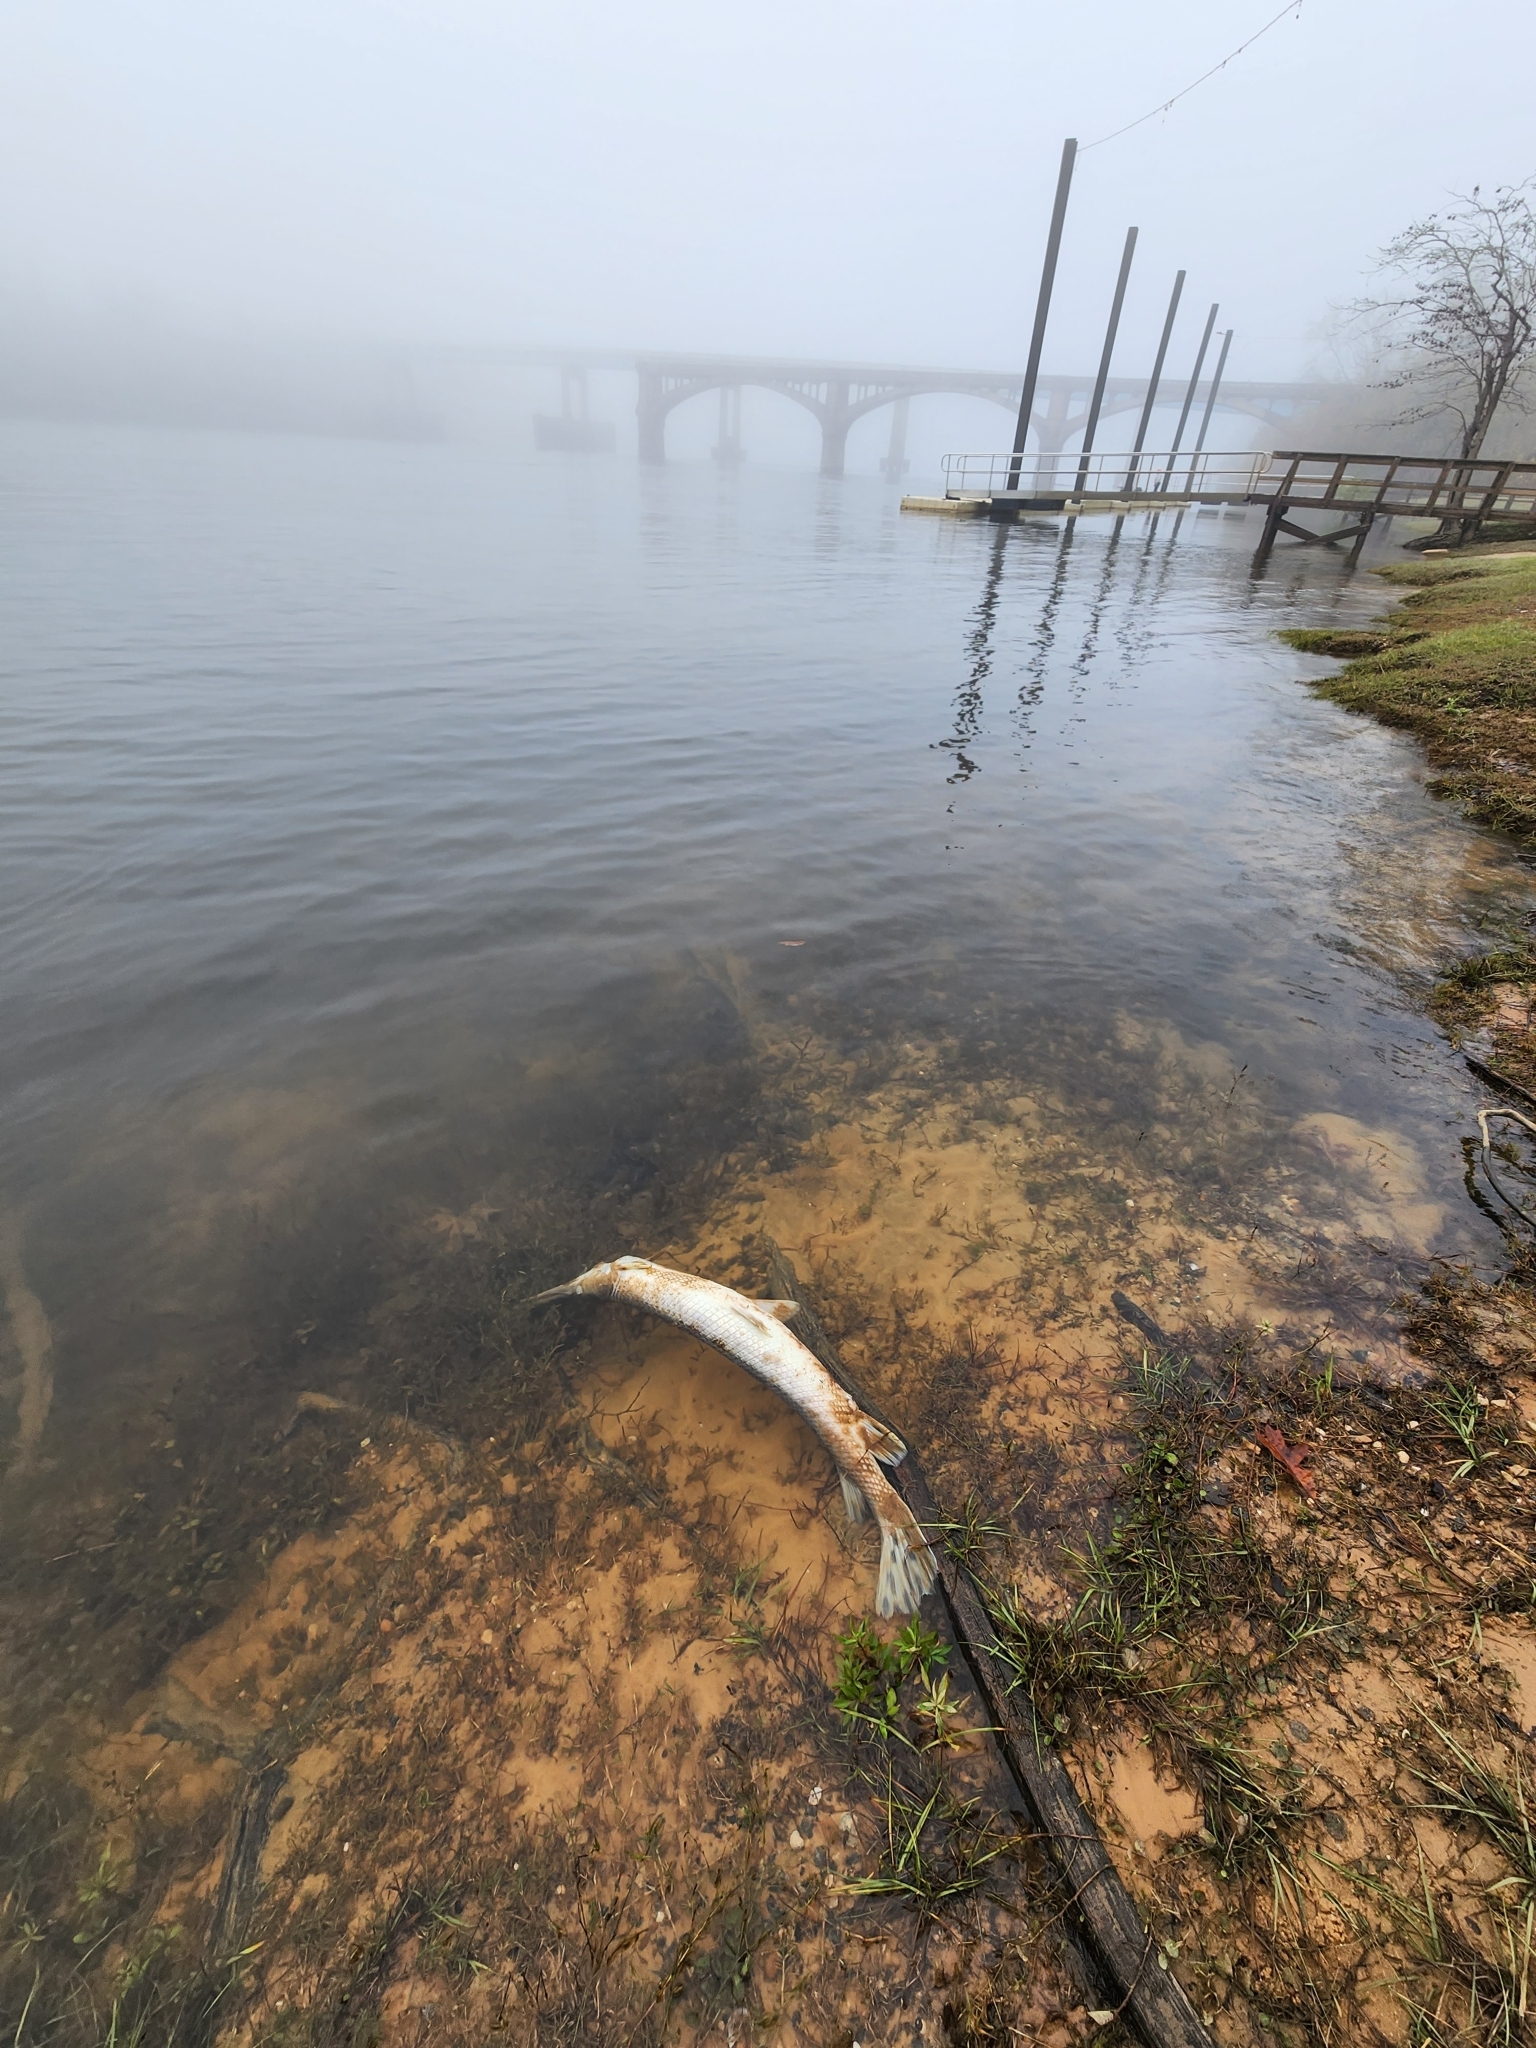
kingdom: Animalia
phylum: Chordata
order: Lepisosteiformes
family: Lepisosteidae
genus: Lepisosteus
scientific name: Lepisosteus osseus
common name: Longnose gar
